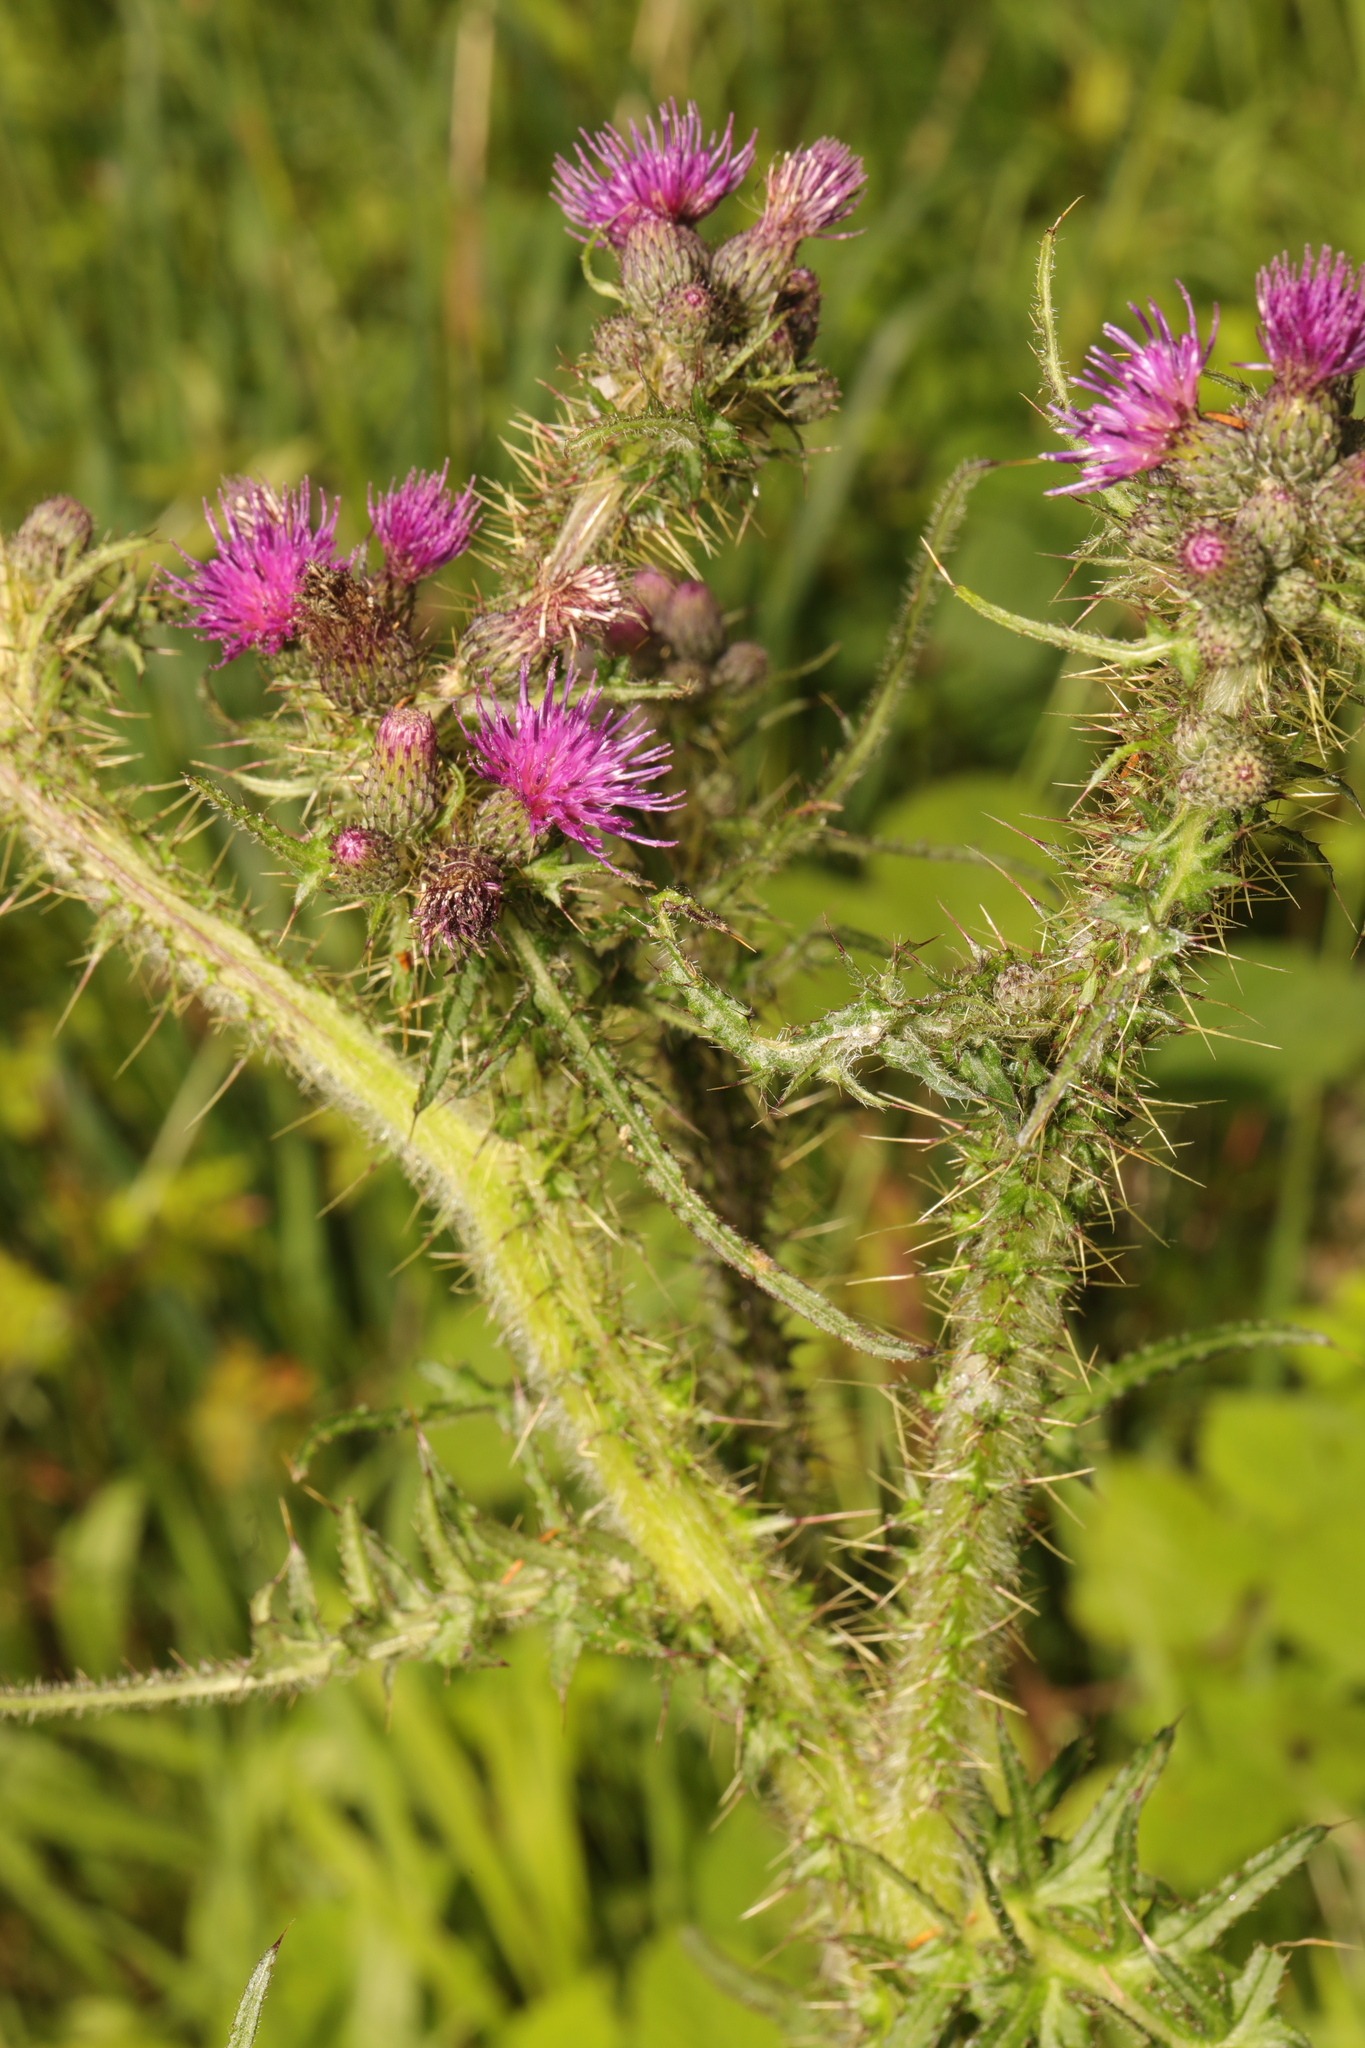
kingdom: Plantae
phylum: Tracheophyta
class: Magnoliopsida
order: Asterales
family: Asteraceae
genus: Cirsium
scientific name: Cirsium palustre
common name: Marsh thistle
